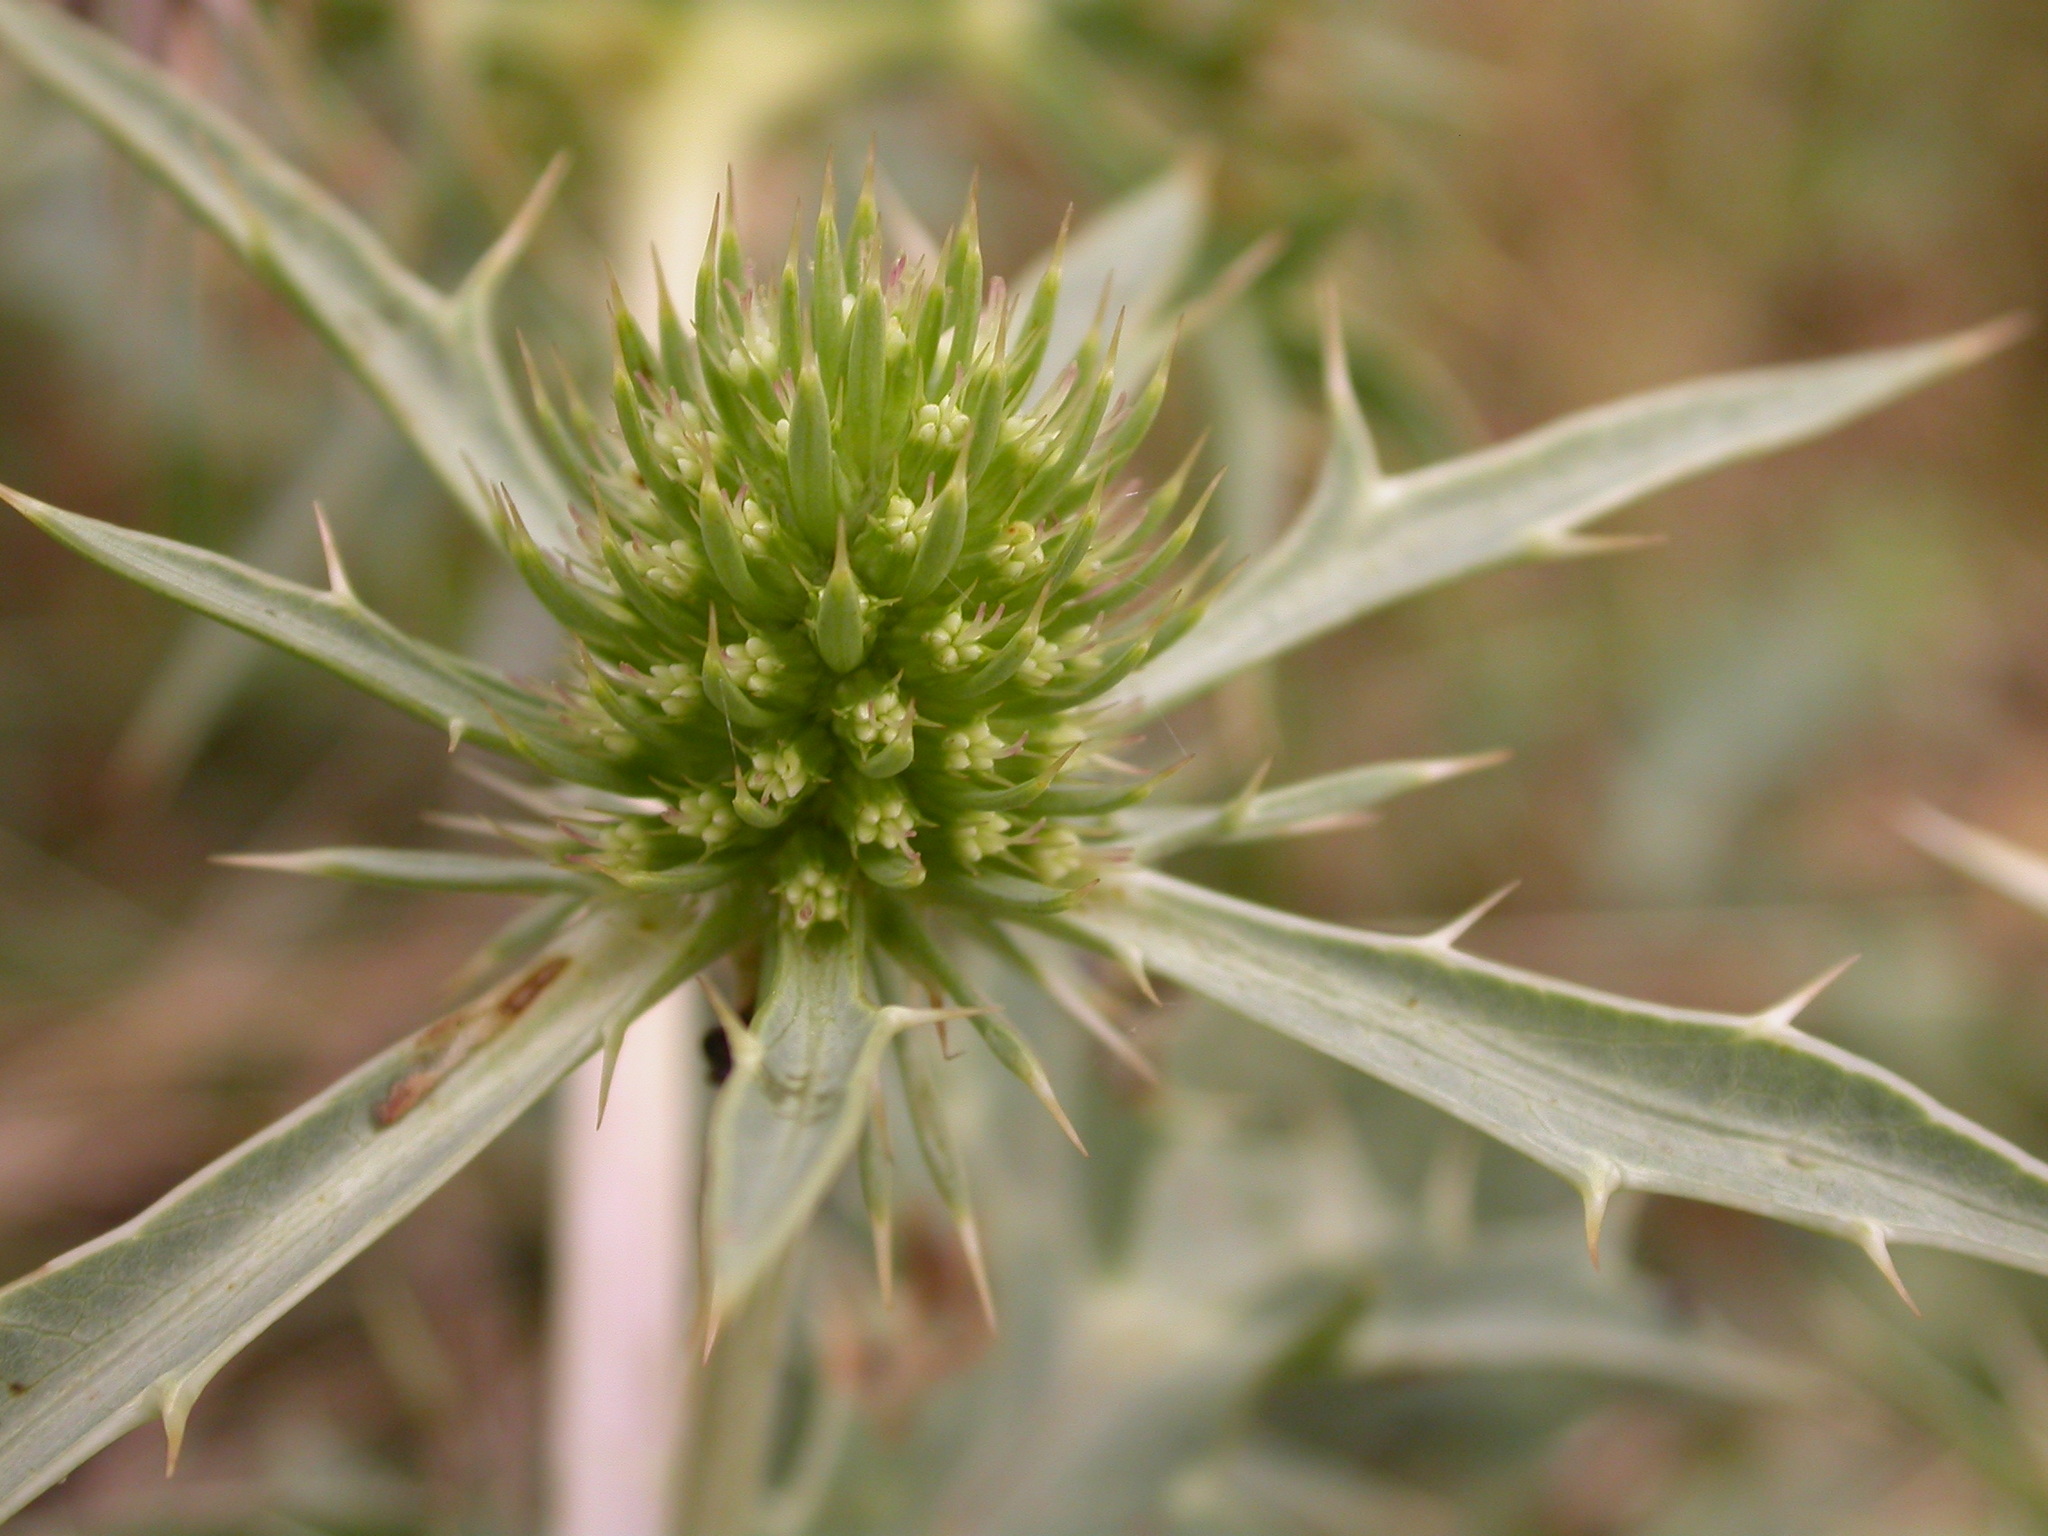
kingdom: Plantae
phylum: Tracheophyta
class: Magnoliopsida
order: Apiales
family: Apiaceae
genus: Eryngium
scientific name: Eryngium campestre
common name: Field eryngo
